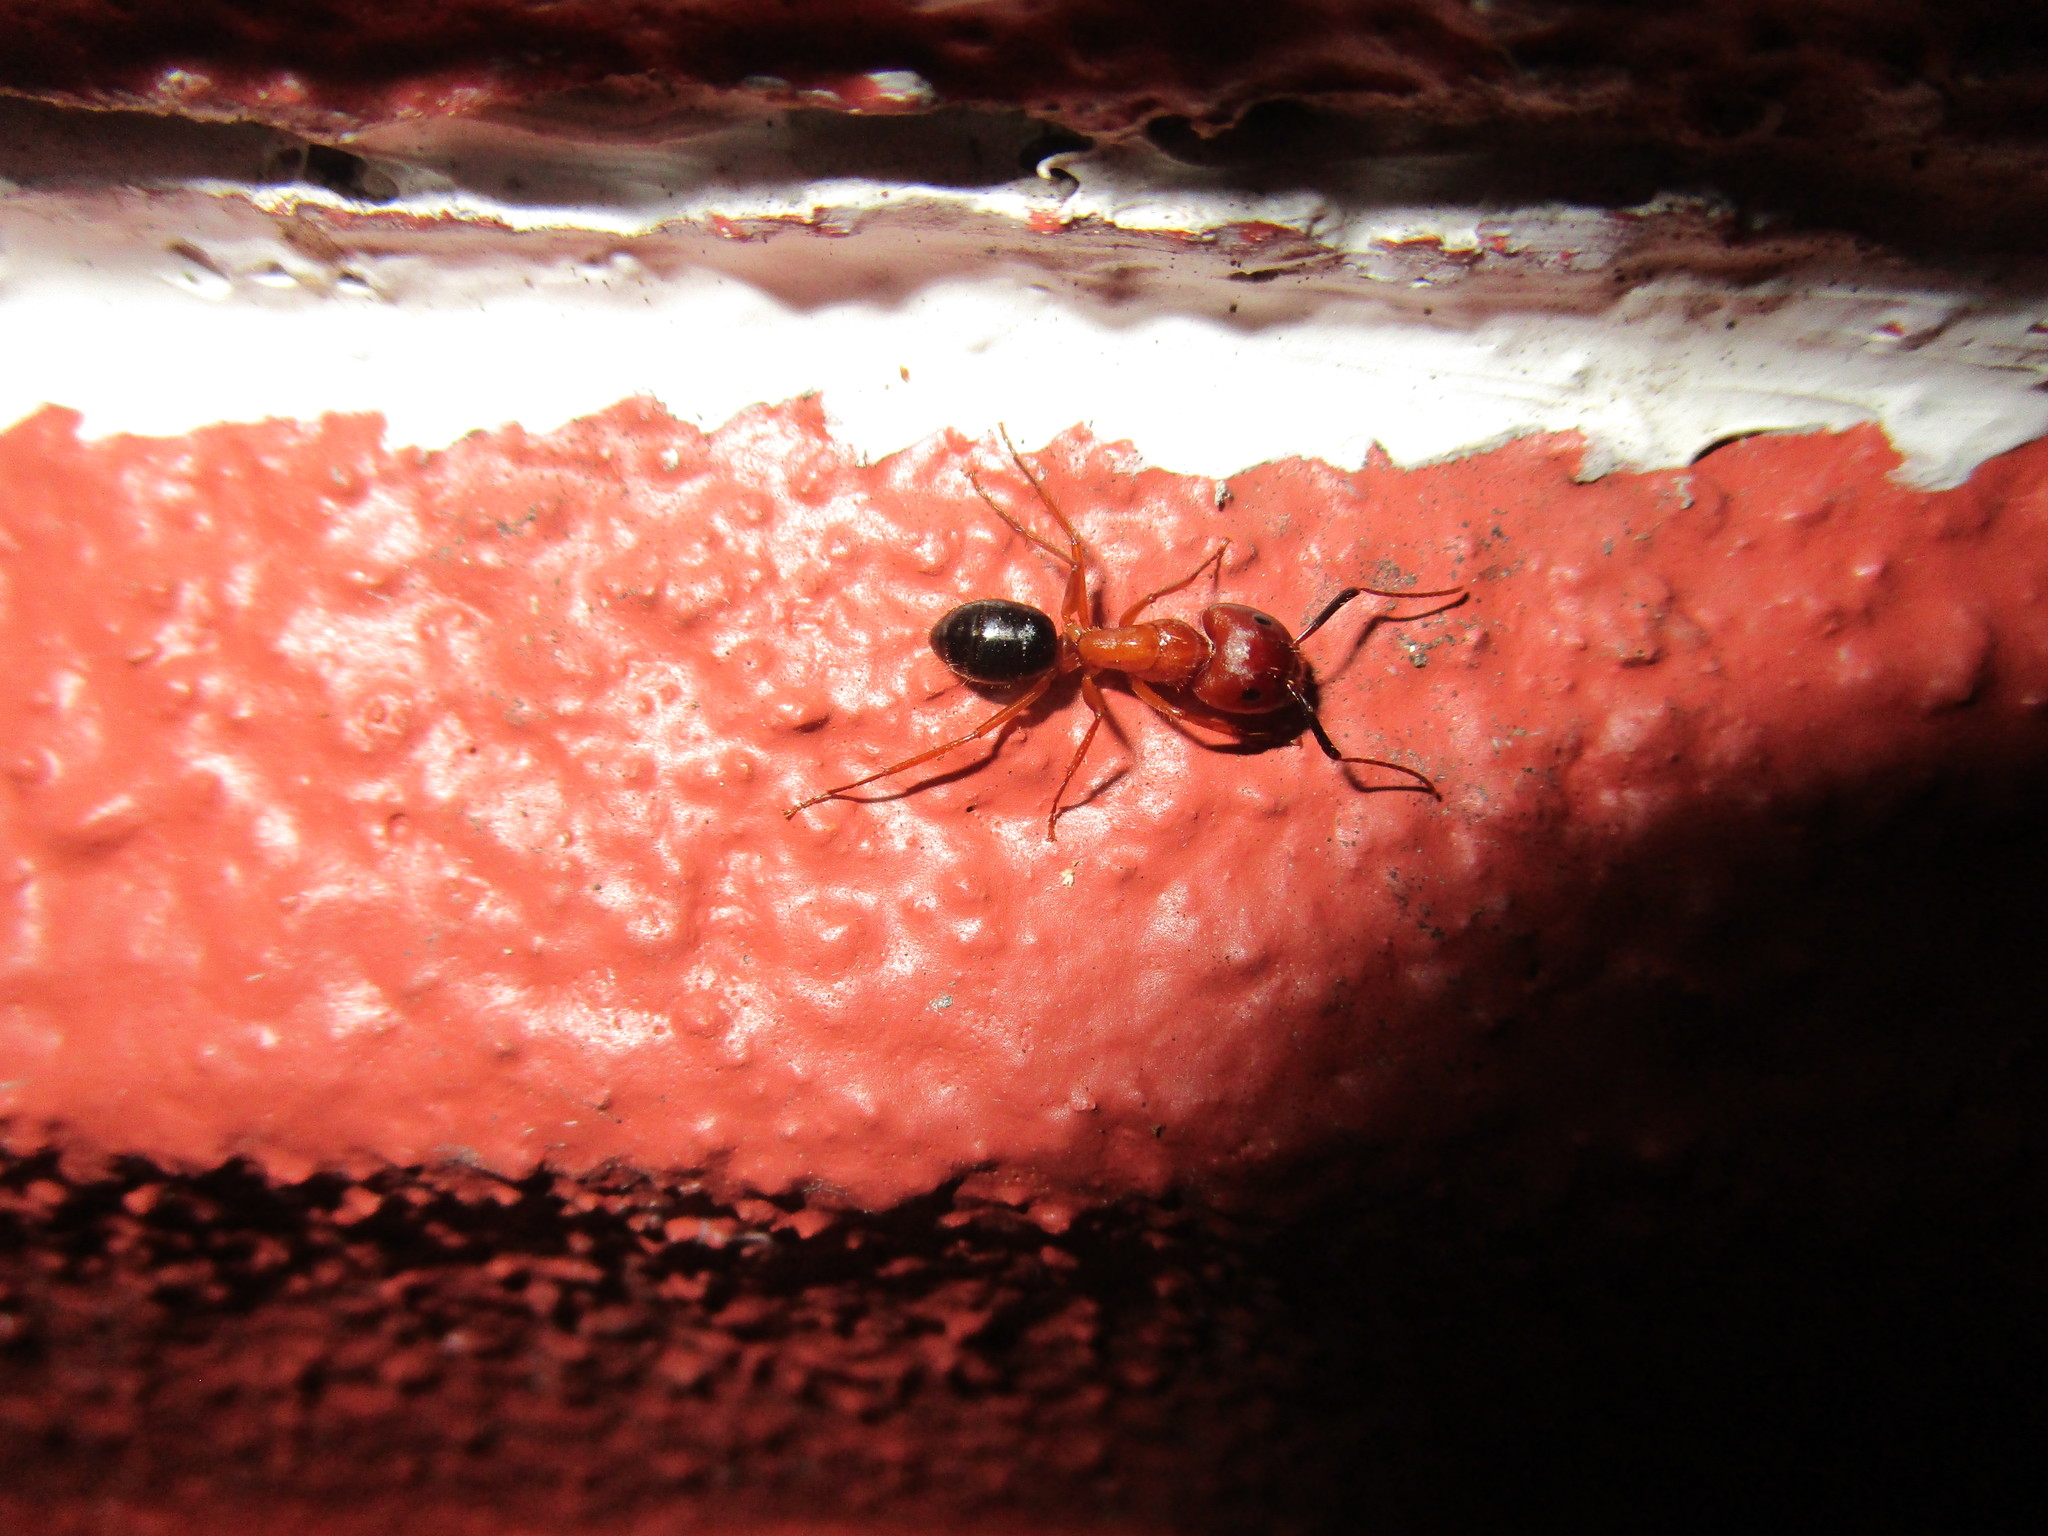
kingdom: Animalia
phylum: Arthropoda
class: Insecta
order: Hymenoptera
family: Formicidae
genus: Camponotus
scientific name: Camponotus floridanus
